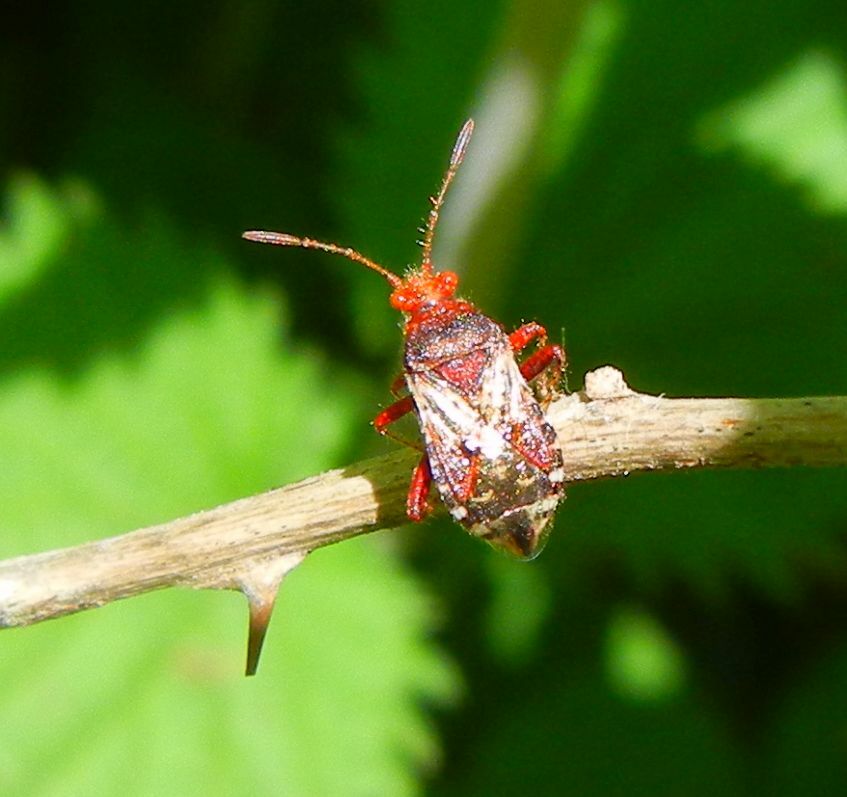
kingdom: Animalia
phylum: Arthropoda
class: Insecta
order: Hemiptera
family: Rhopalidae
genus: Rhopalus
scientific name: Rhopalus subrufus
